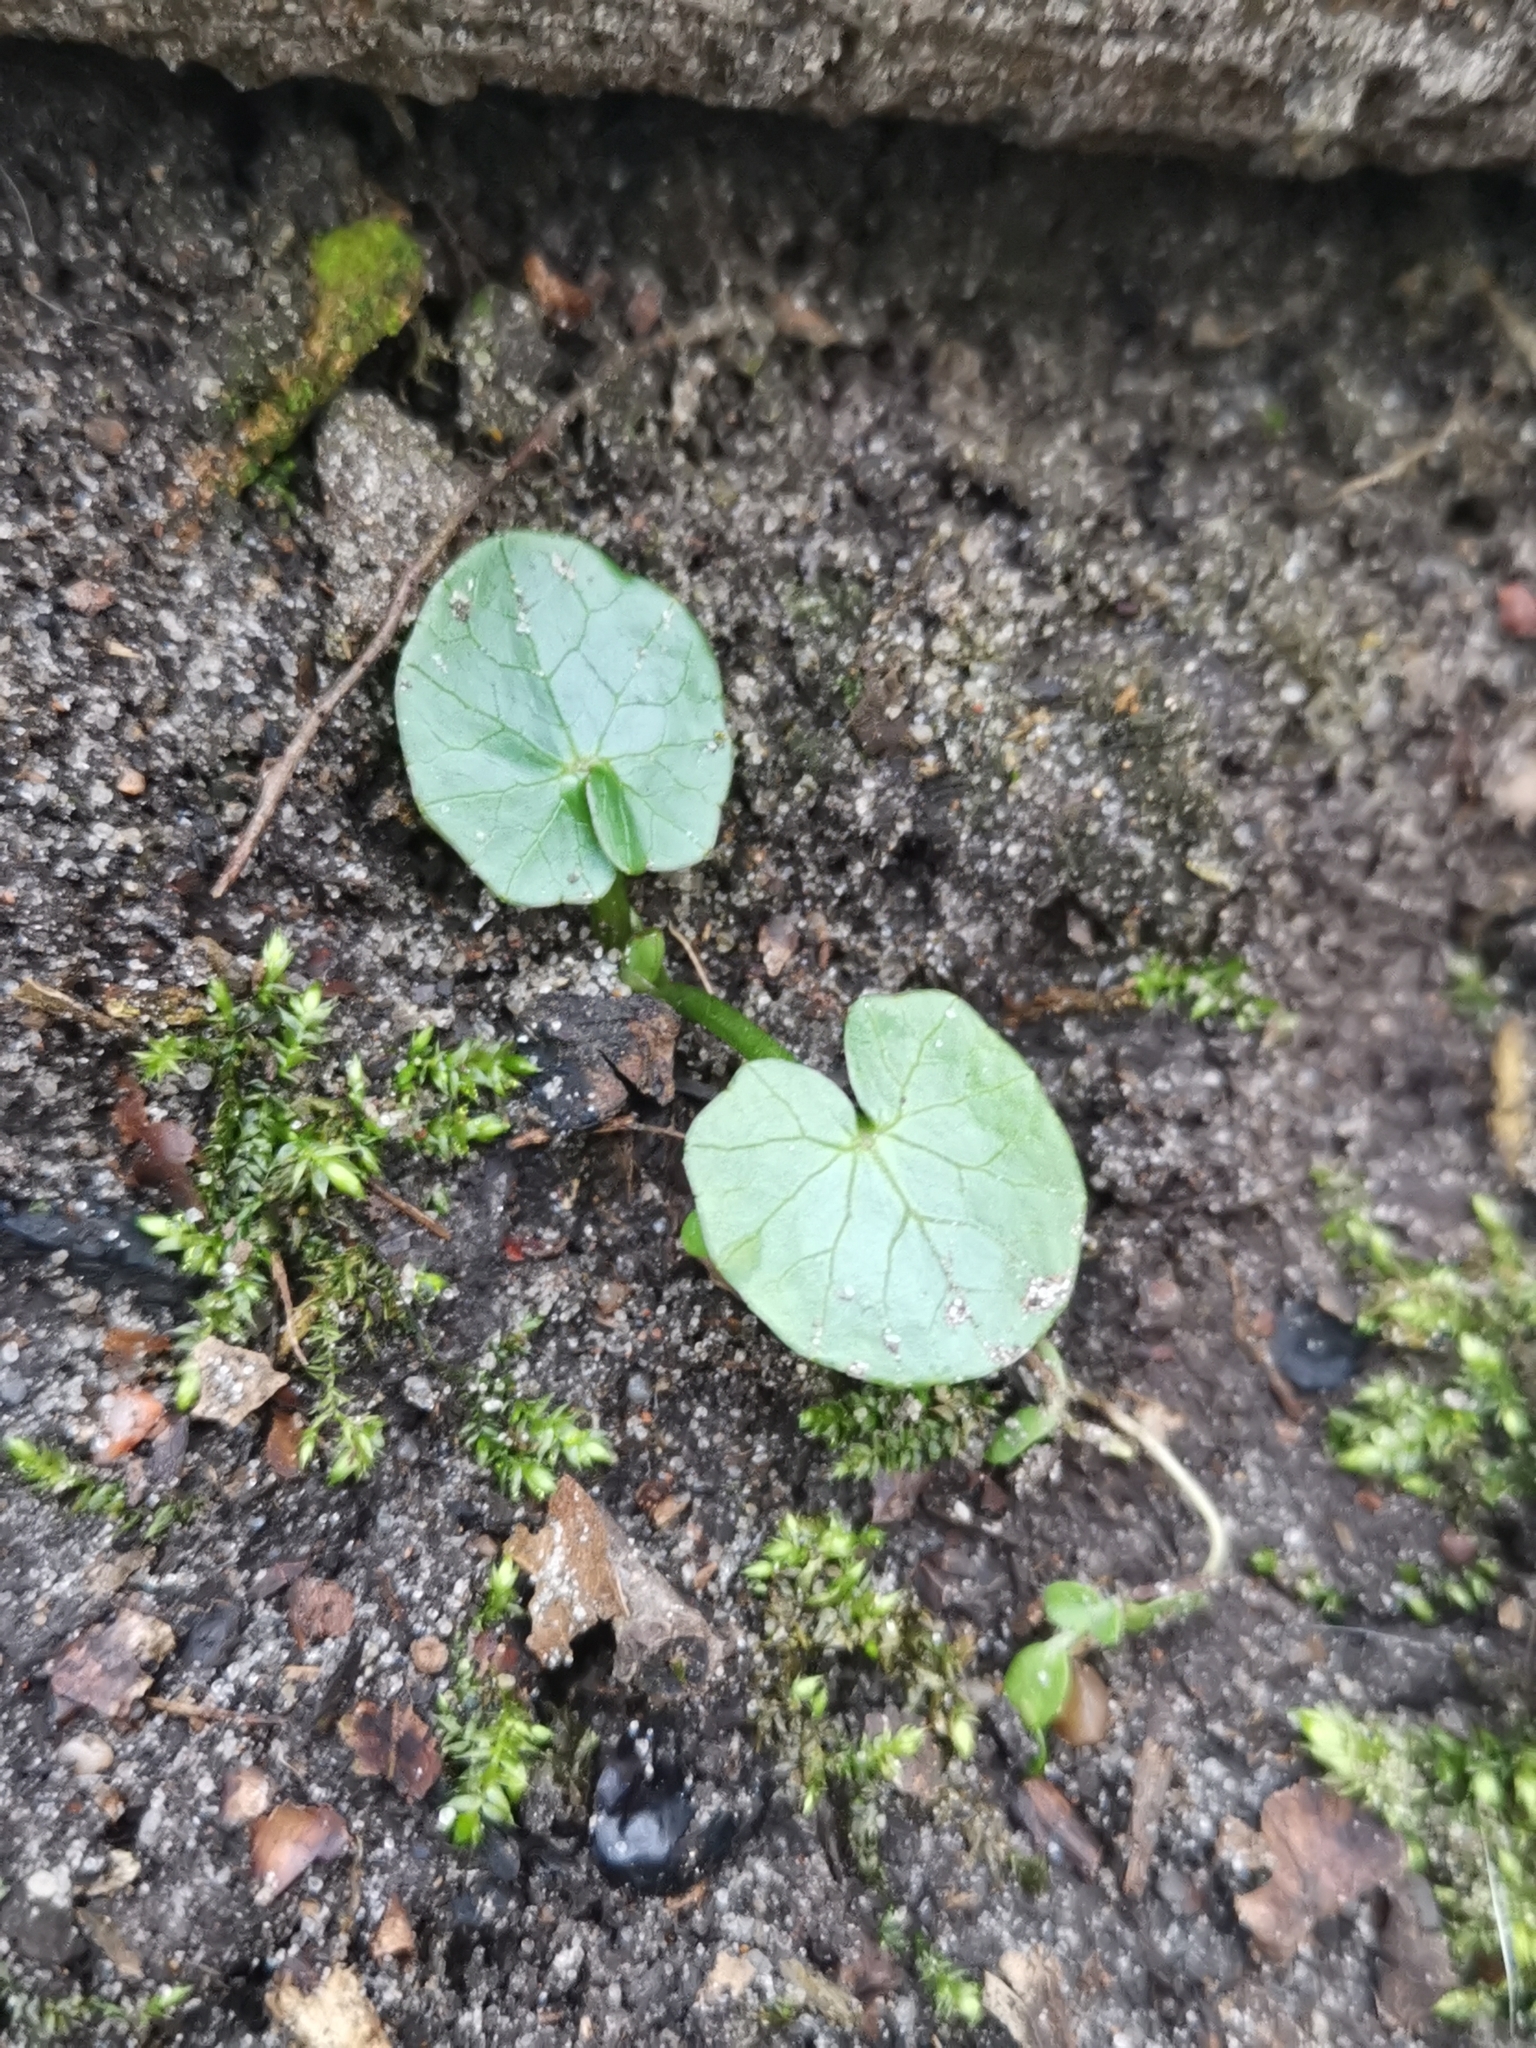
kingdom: Plantae
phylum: Tracheophyta
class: Magnoliopsida
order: Ranunculales
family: Ranunculaceae
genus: Ficaria
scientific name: Ficaria verna
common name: Lesser celandine
